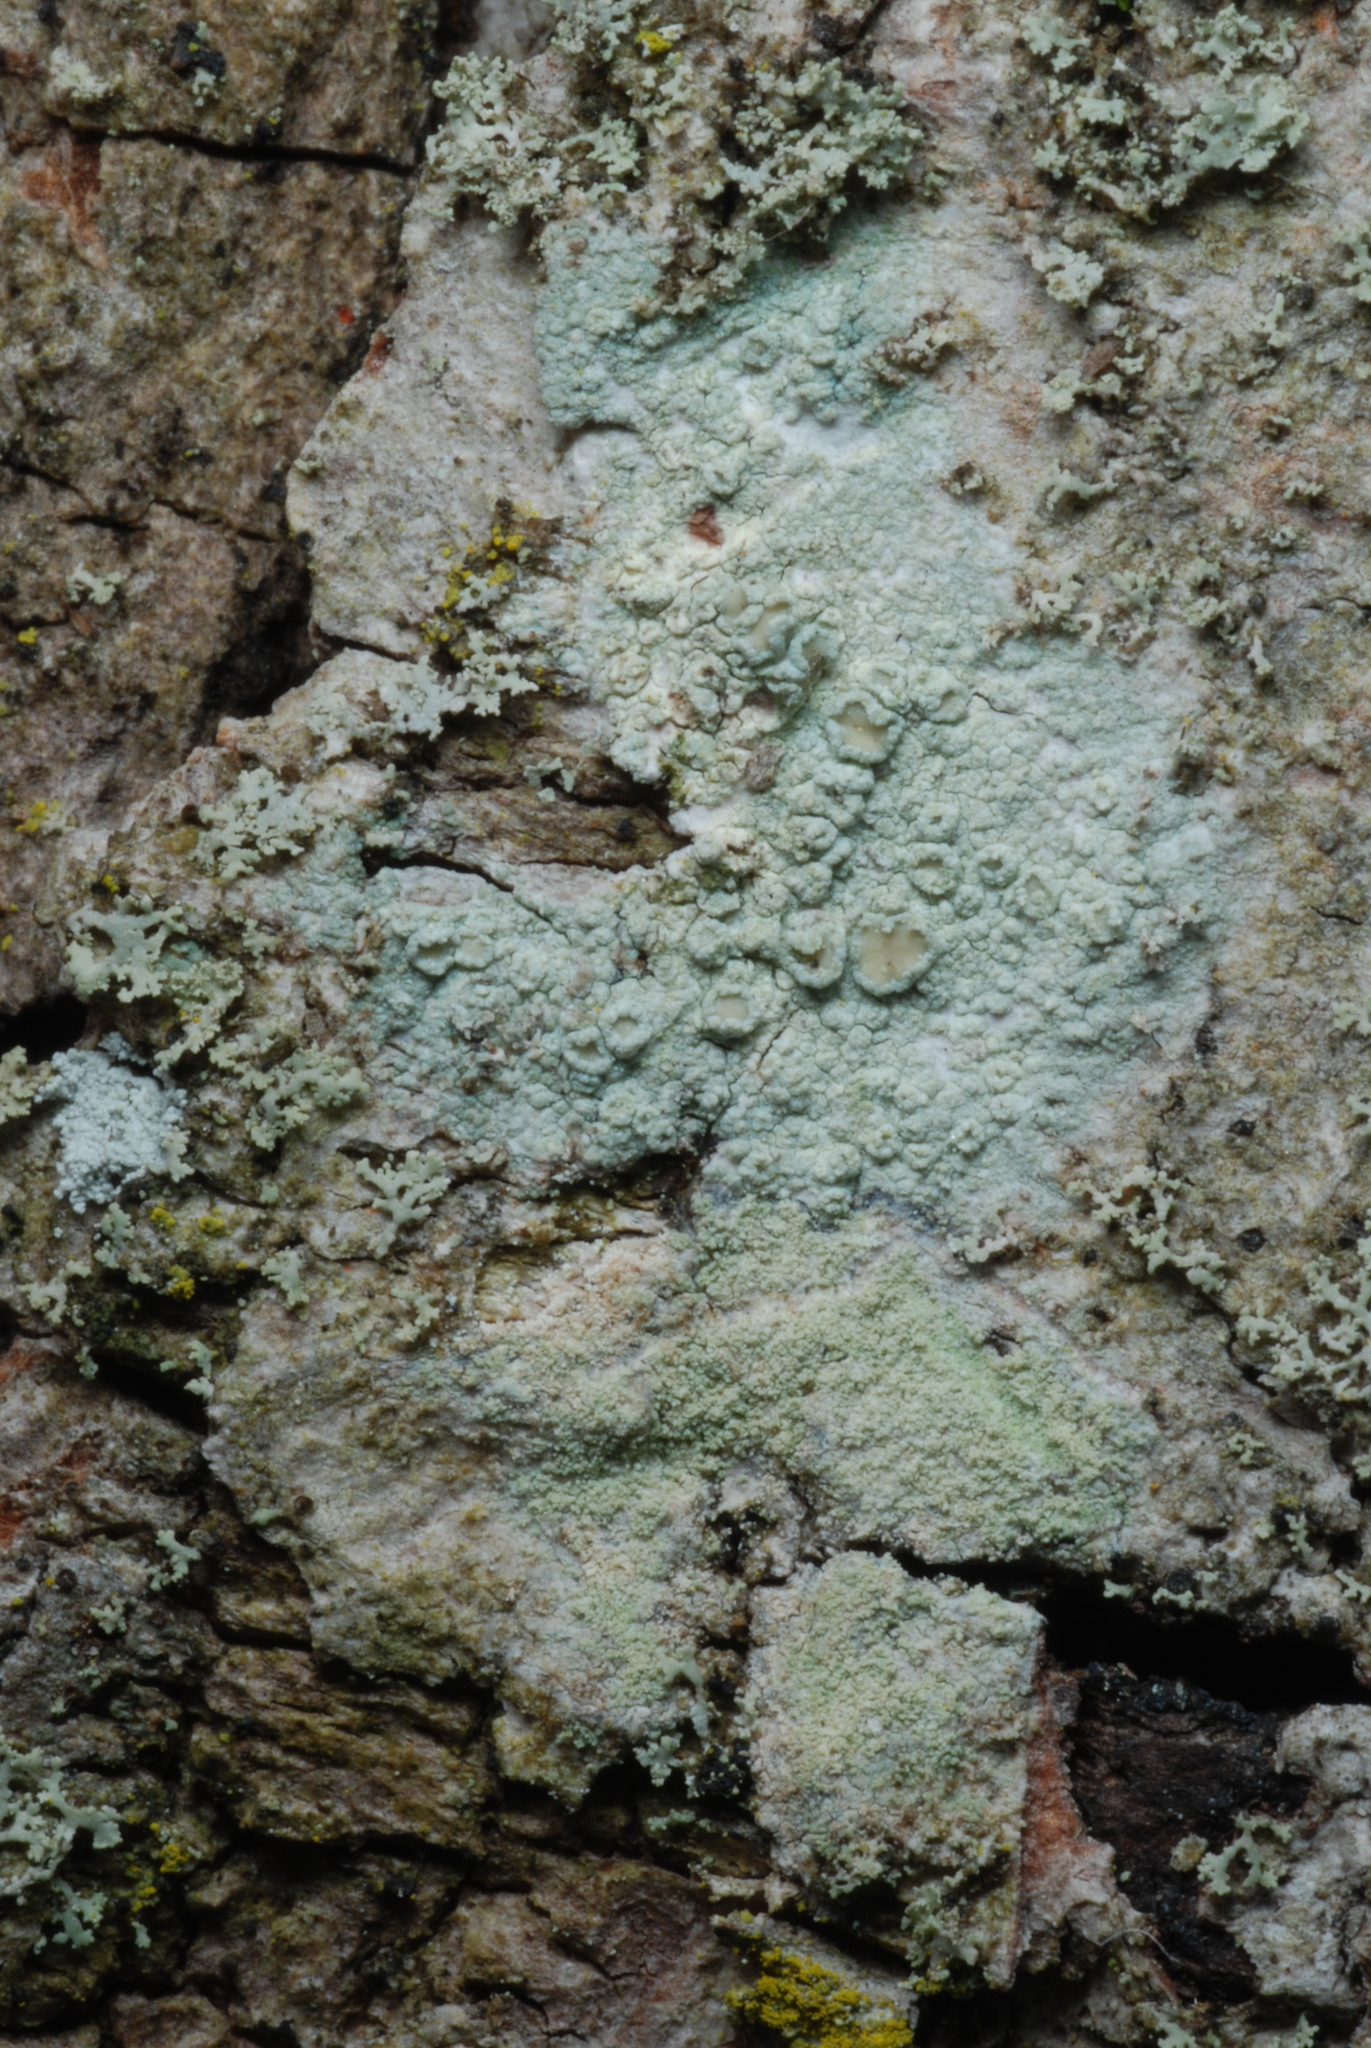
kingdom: Fungi
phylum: Ascomycota
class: Lecanoromycetes
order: Lecanorales
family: Lecanoraceae
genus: Lecanora
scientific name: Lecanora conizaeoides
